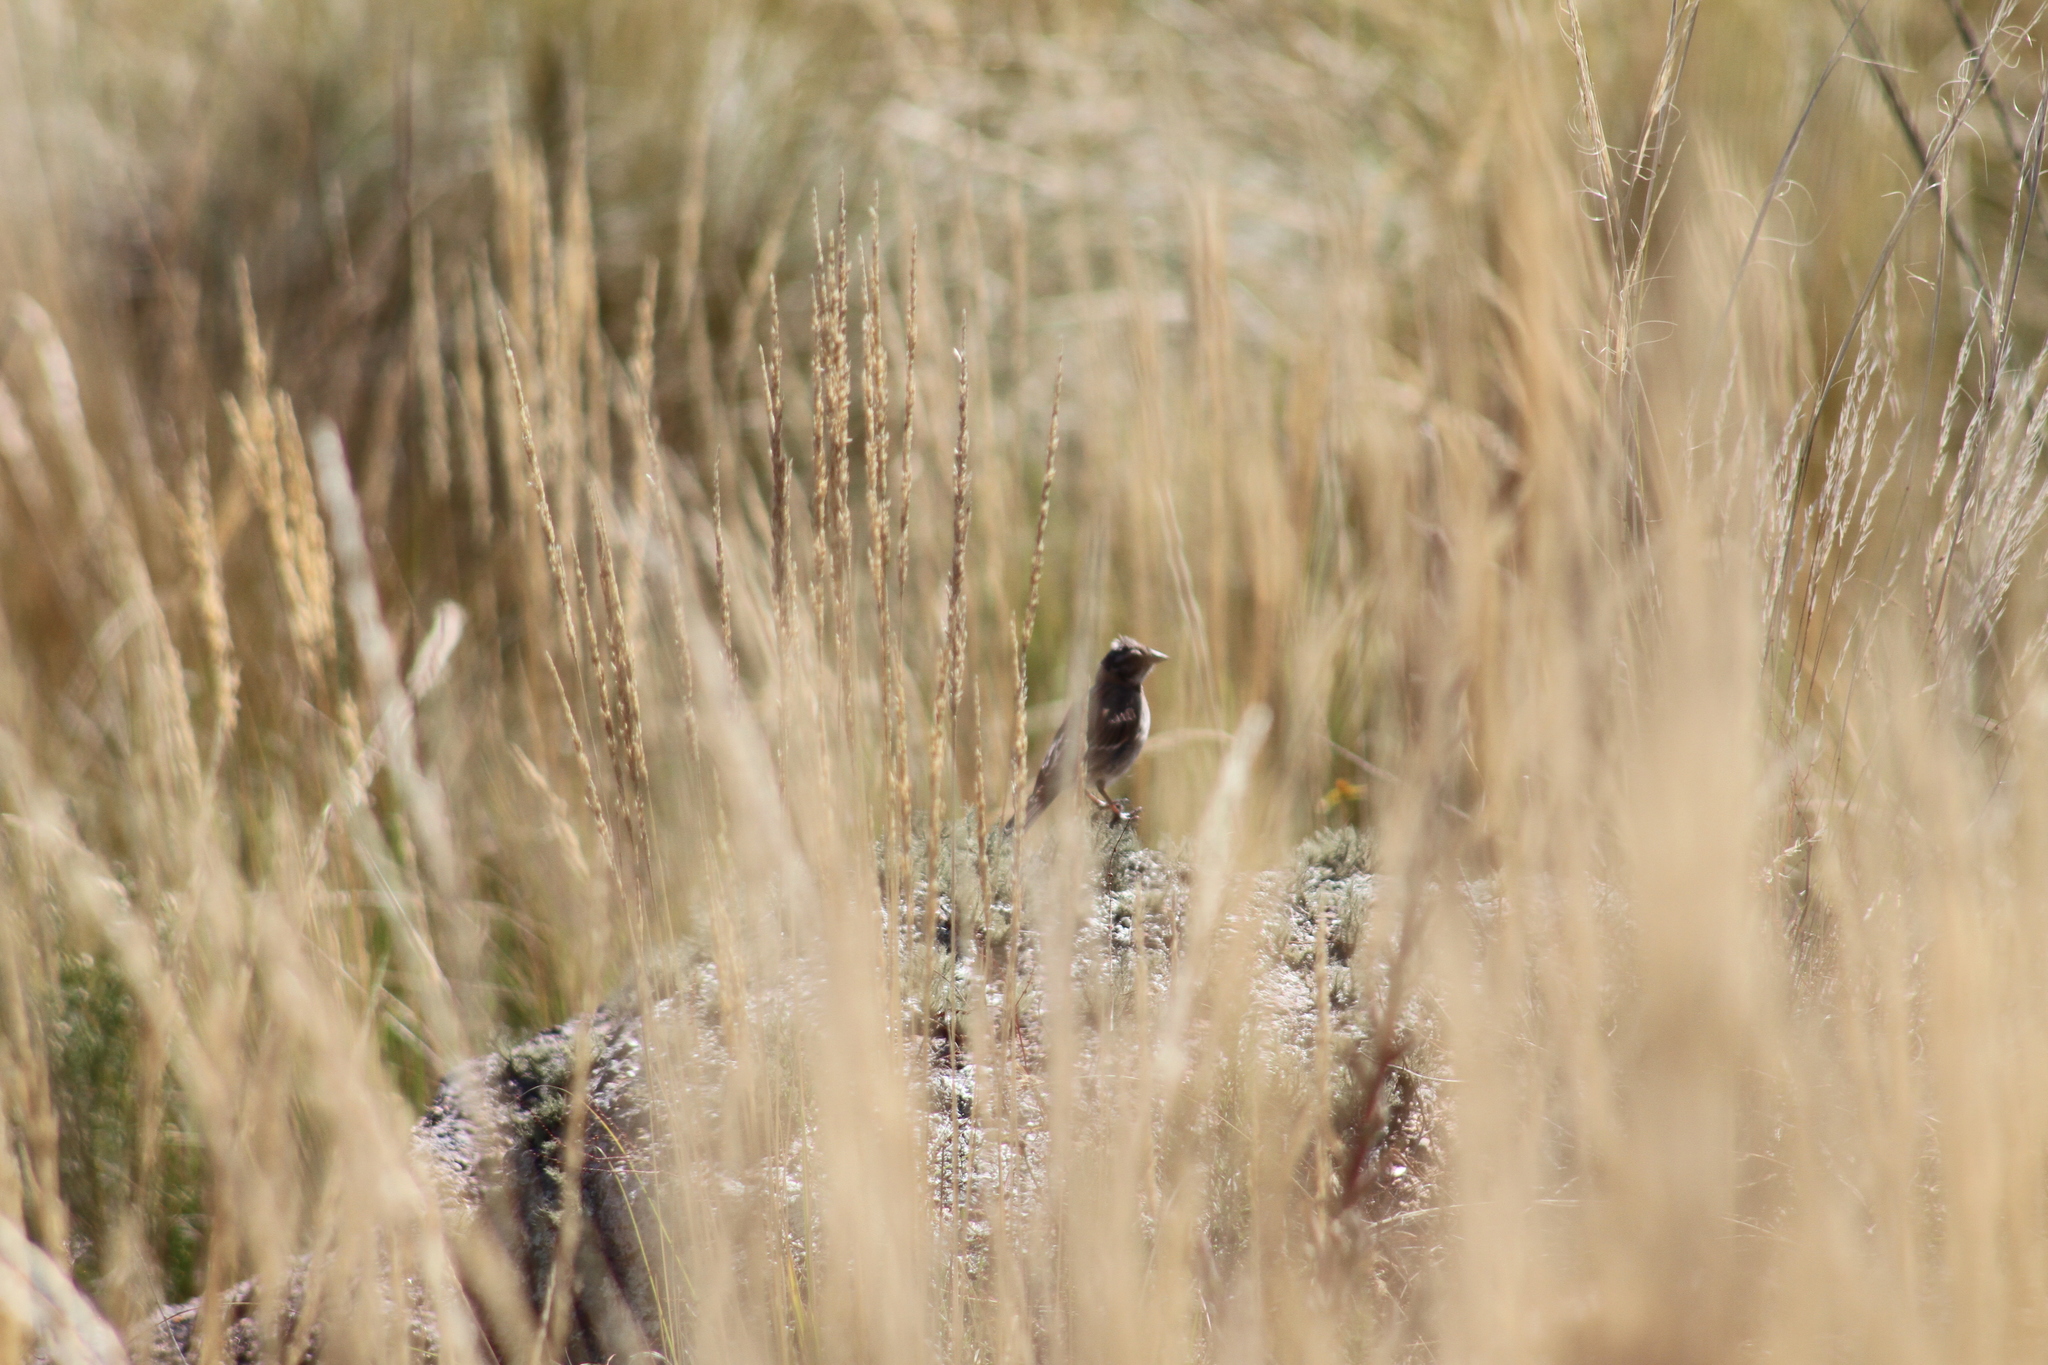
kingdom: Animalia
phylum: Chordata
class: Aves
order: Passeriformes
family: Passerellidae
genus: Zonotrichia
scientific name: Zonotrichia capensis
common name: Rufous-collared sparrow
